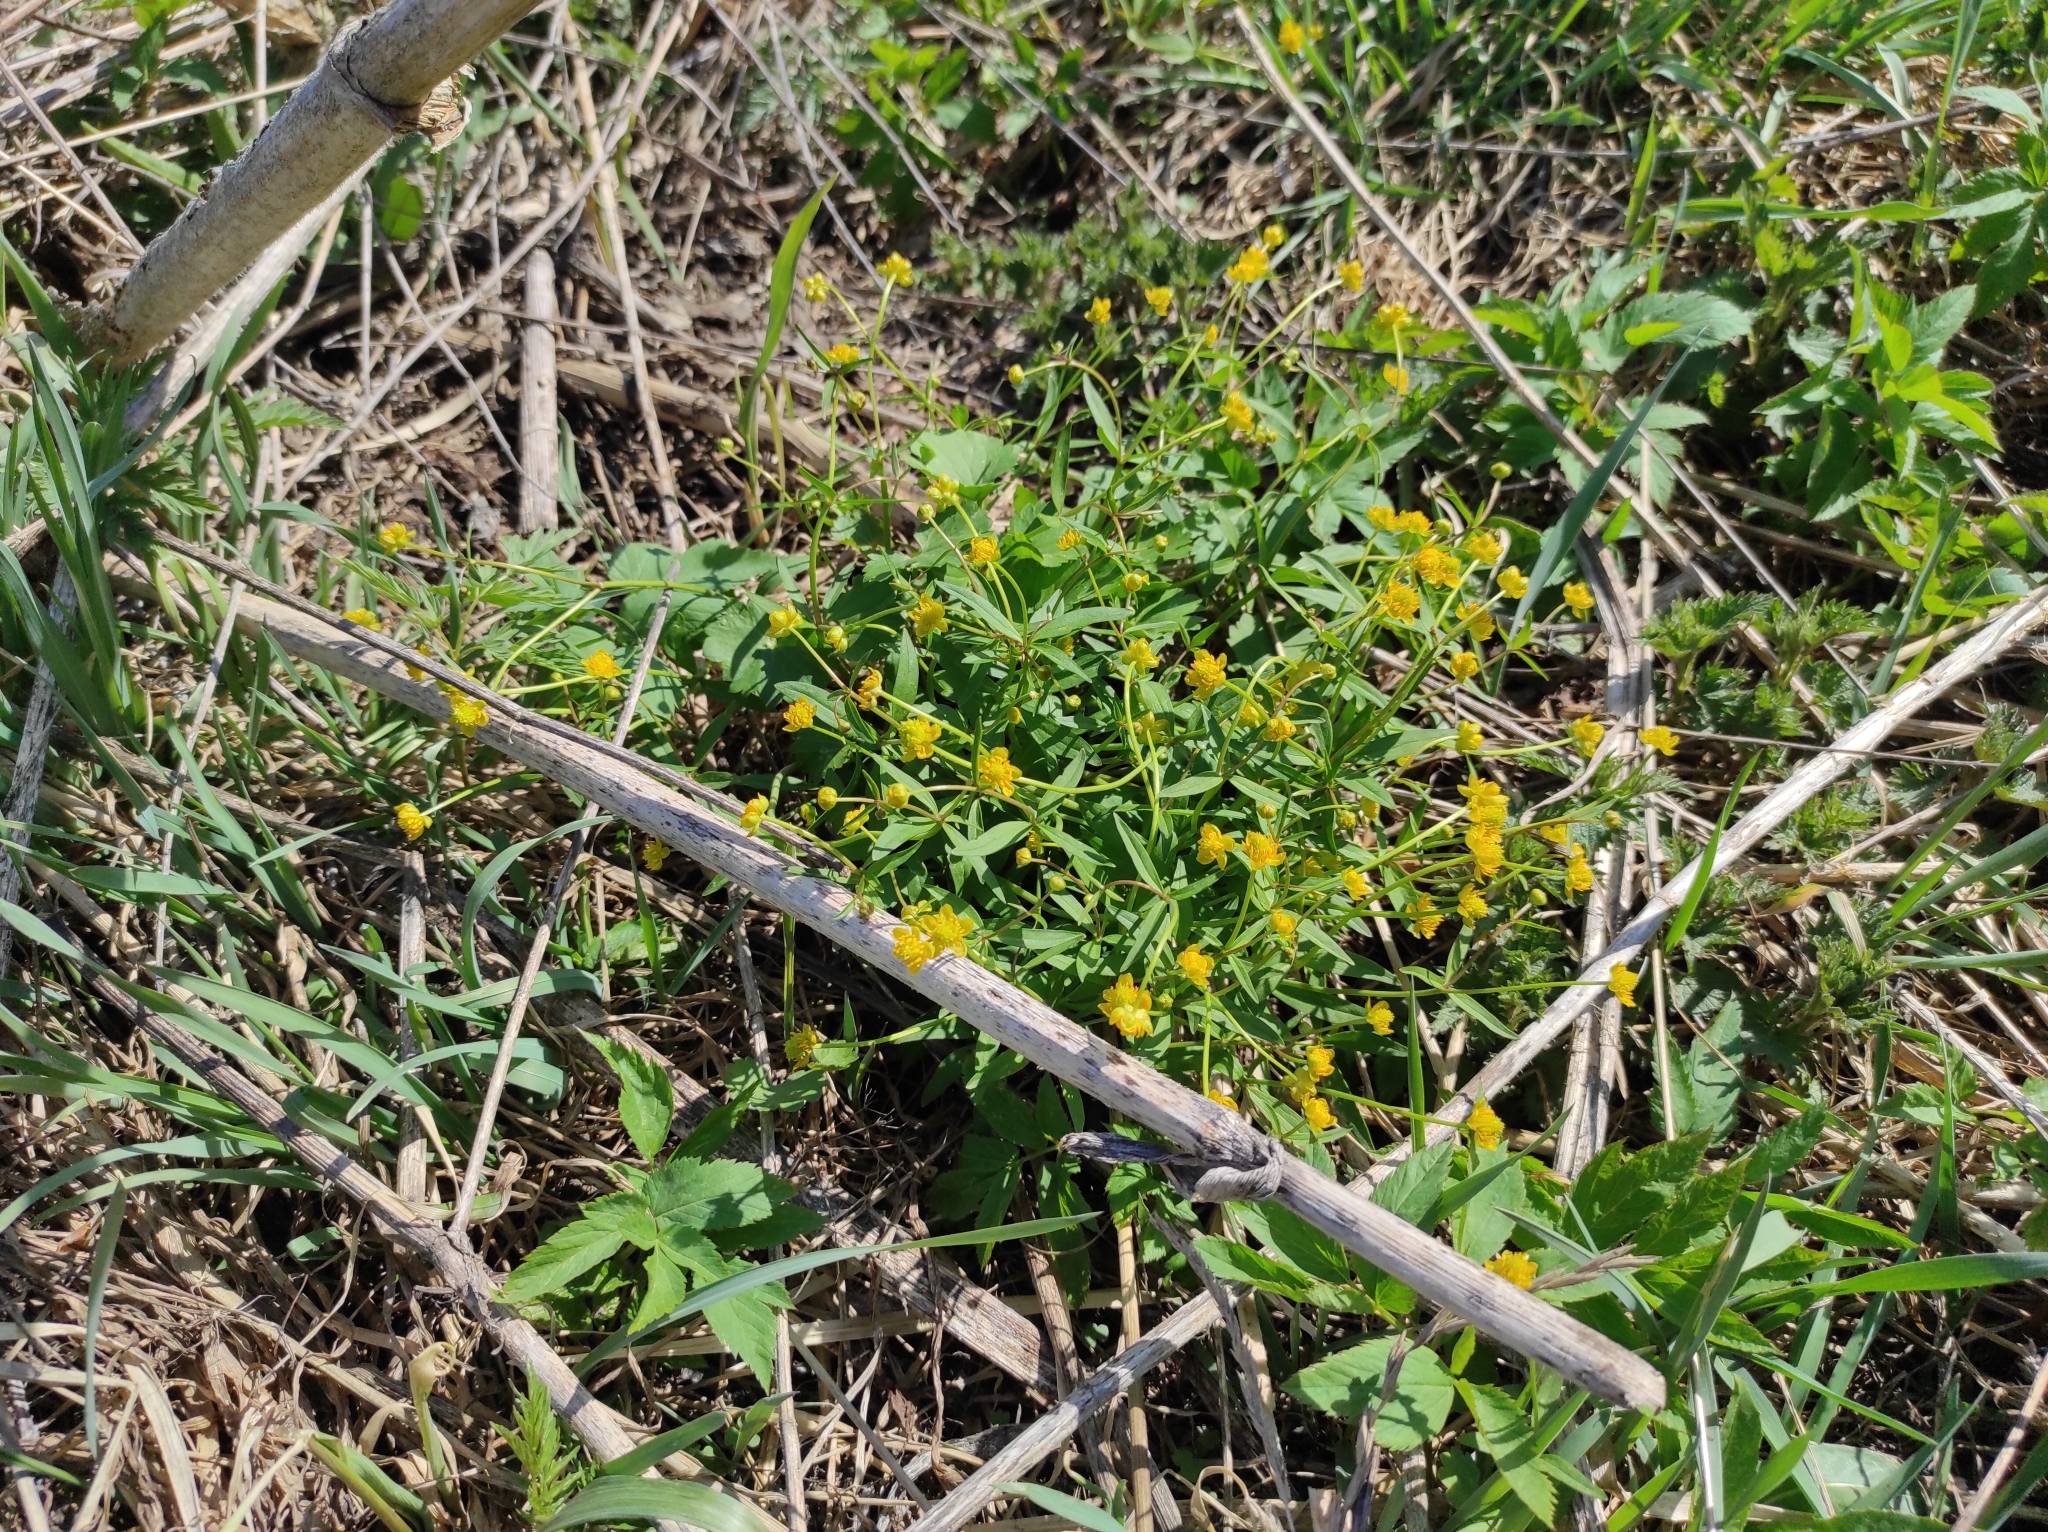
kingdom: Plantae
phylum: Tracheophyta
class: Magnoliopsida
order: Ranunculales
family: Ranunculaceae
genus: Ranunculus
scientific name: Ranunculus monophyllus
